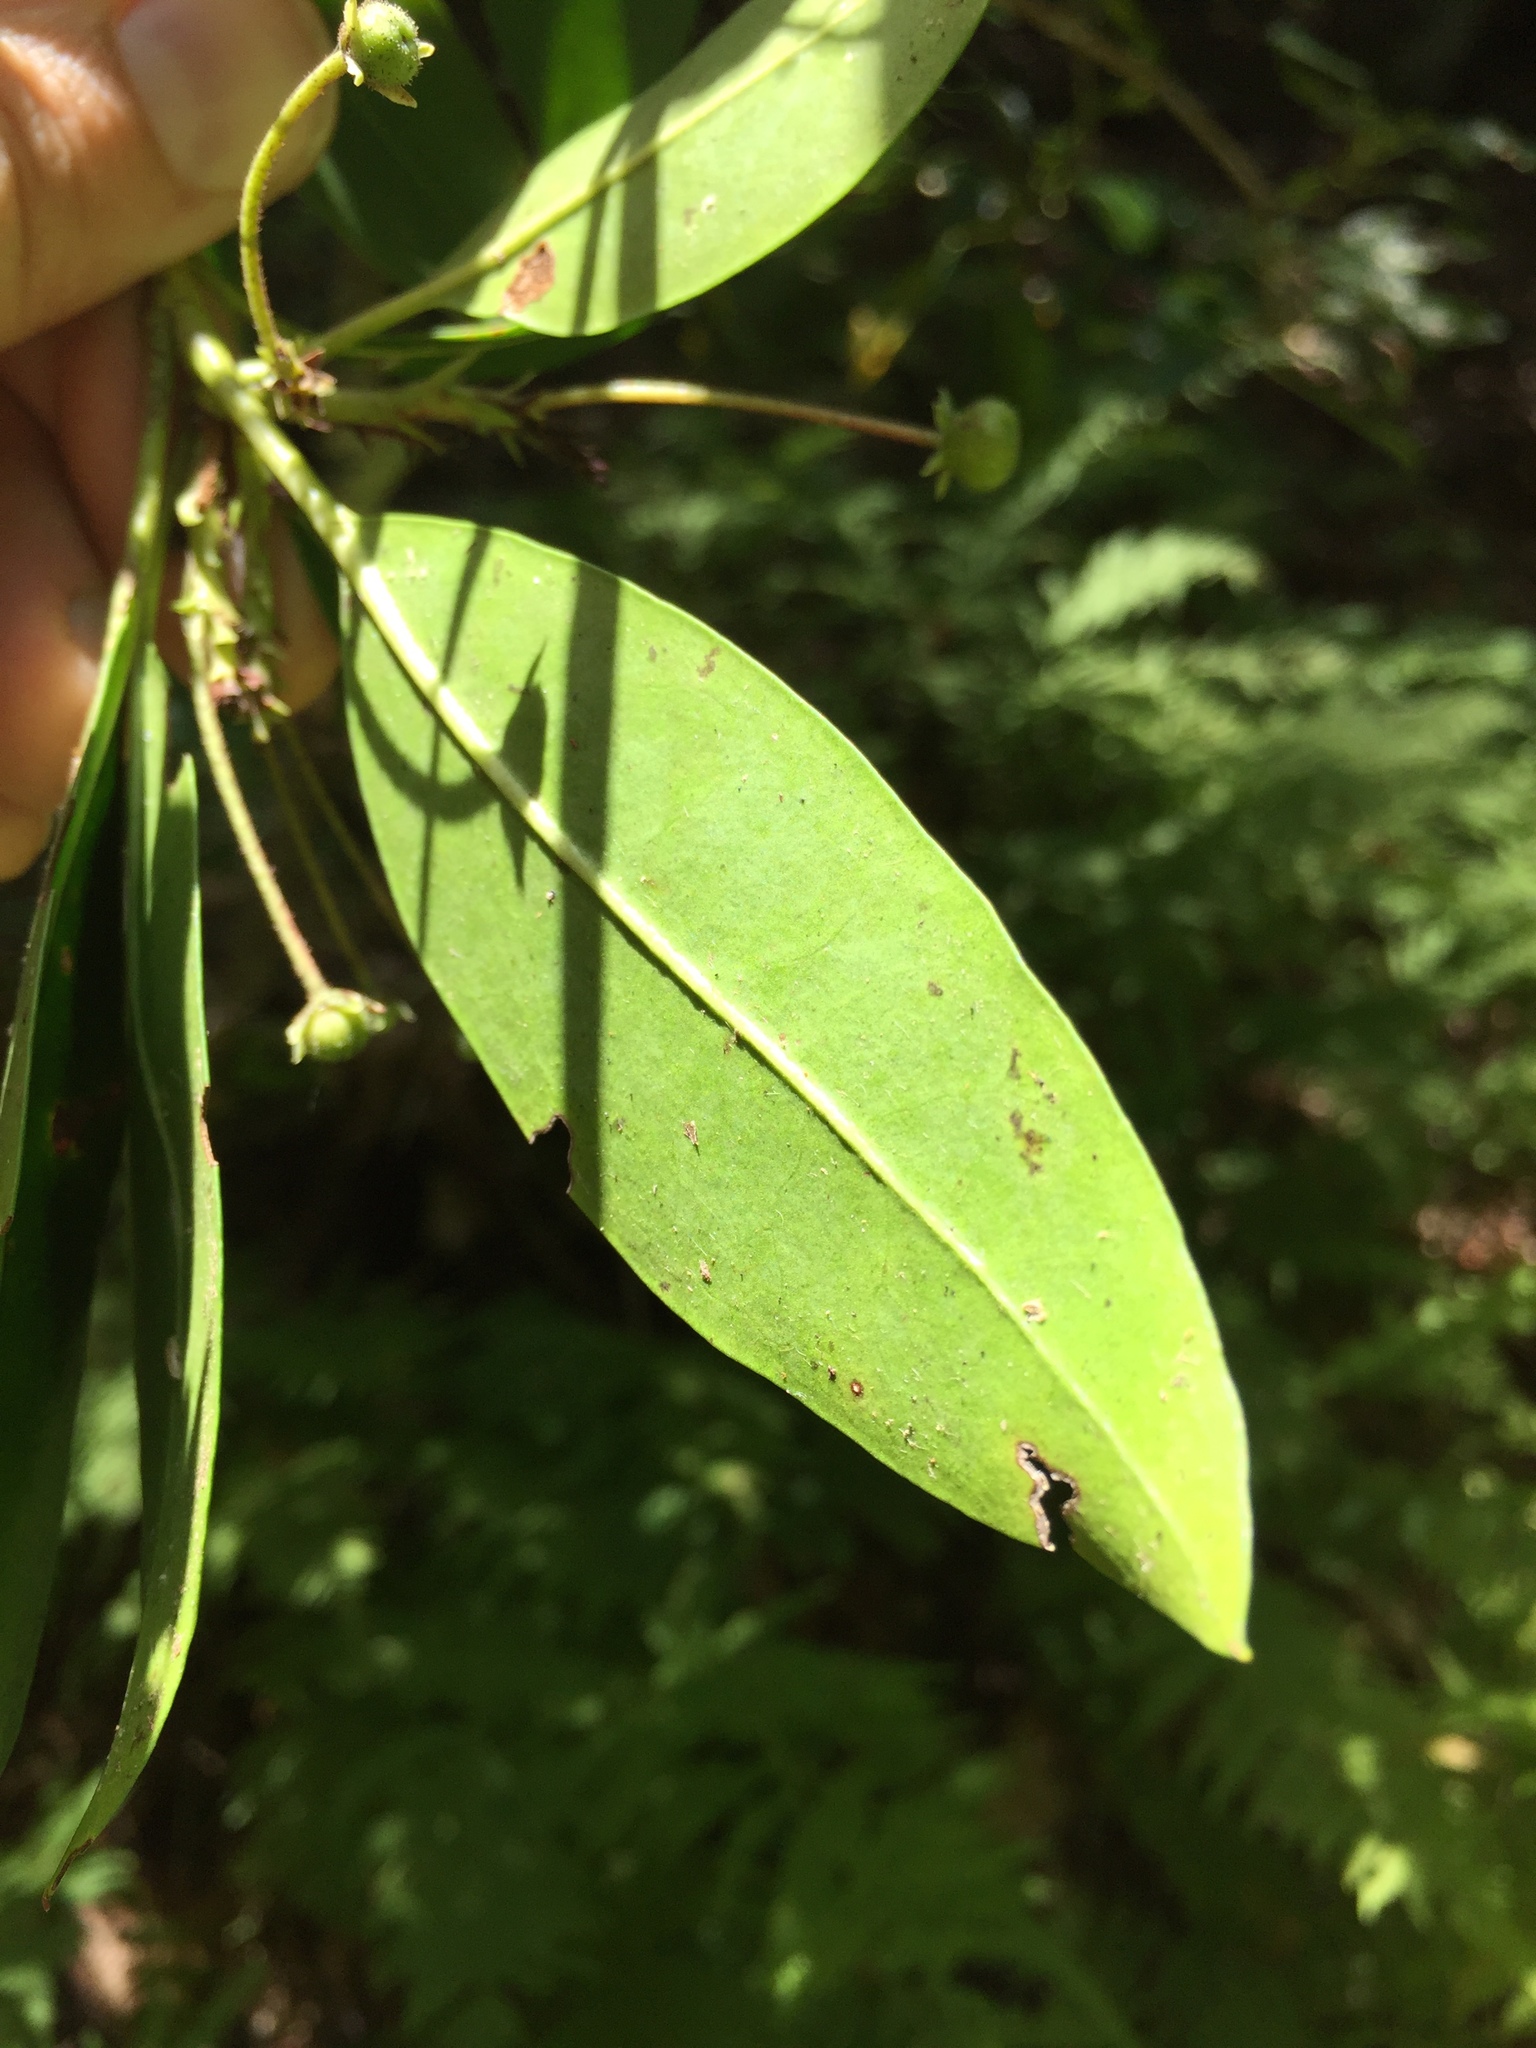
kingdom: Plantae
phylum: Tracheophyta
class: Magnoliopsida
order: Ericales
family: Ericaceae
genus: Kalmia
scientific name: Kalmia latifolia
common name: Mountain-laurel
